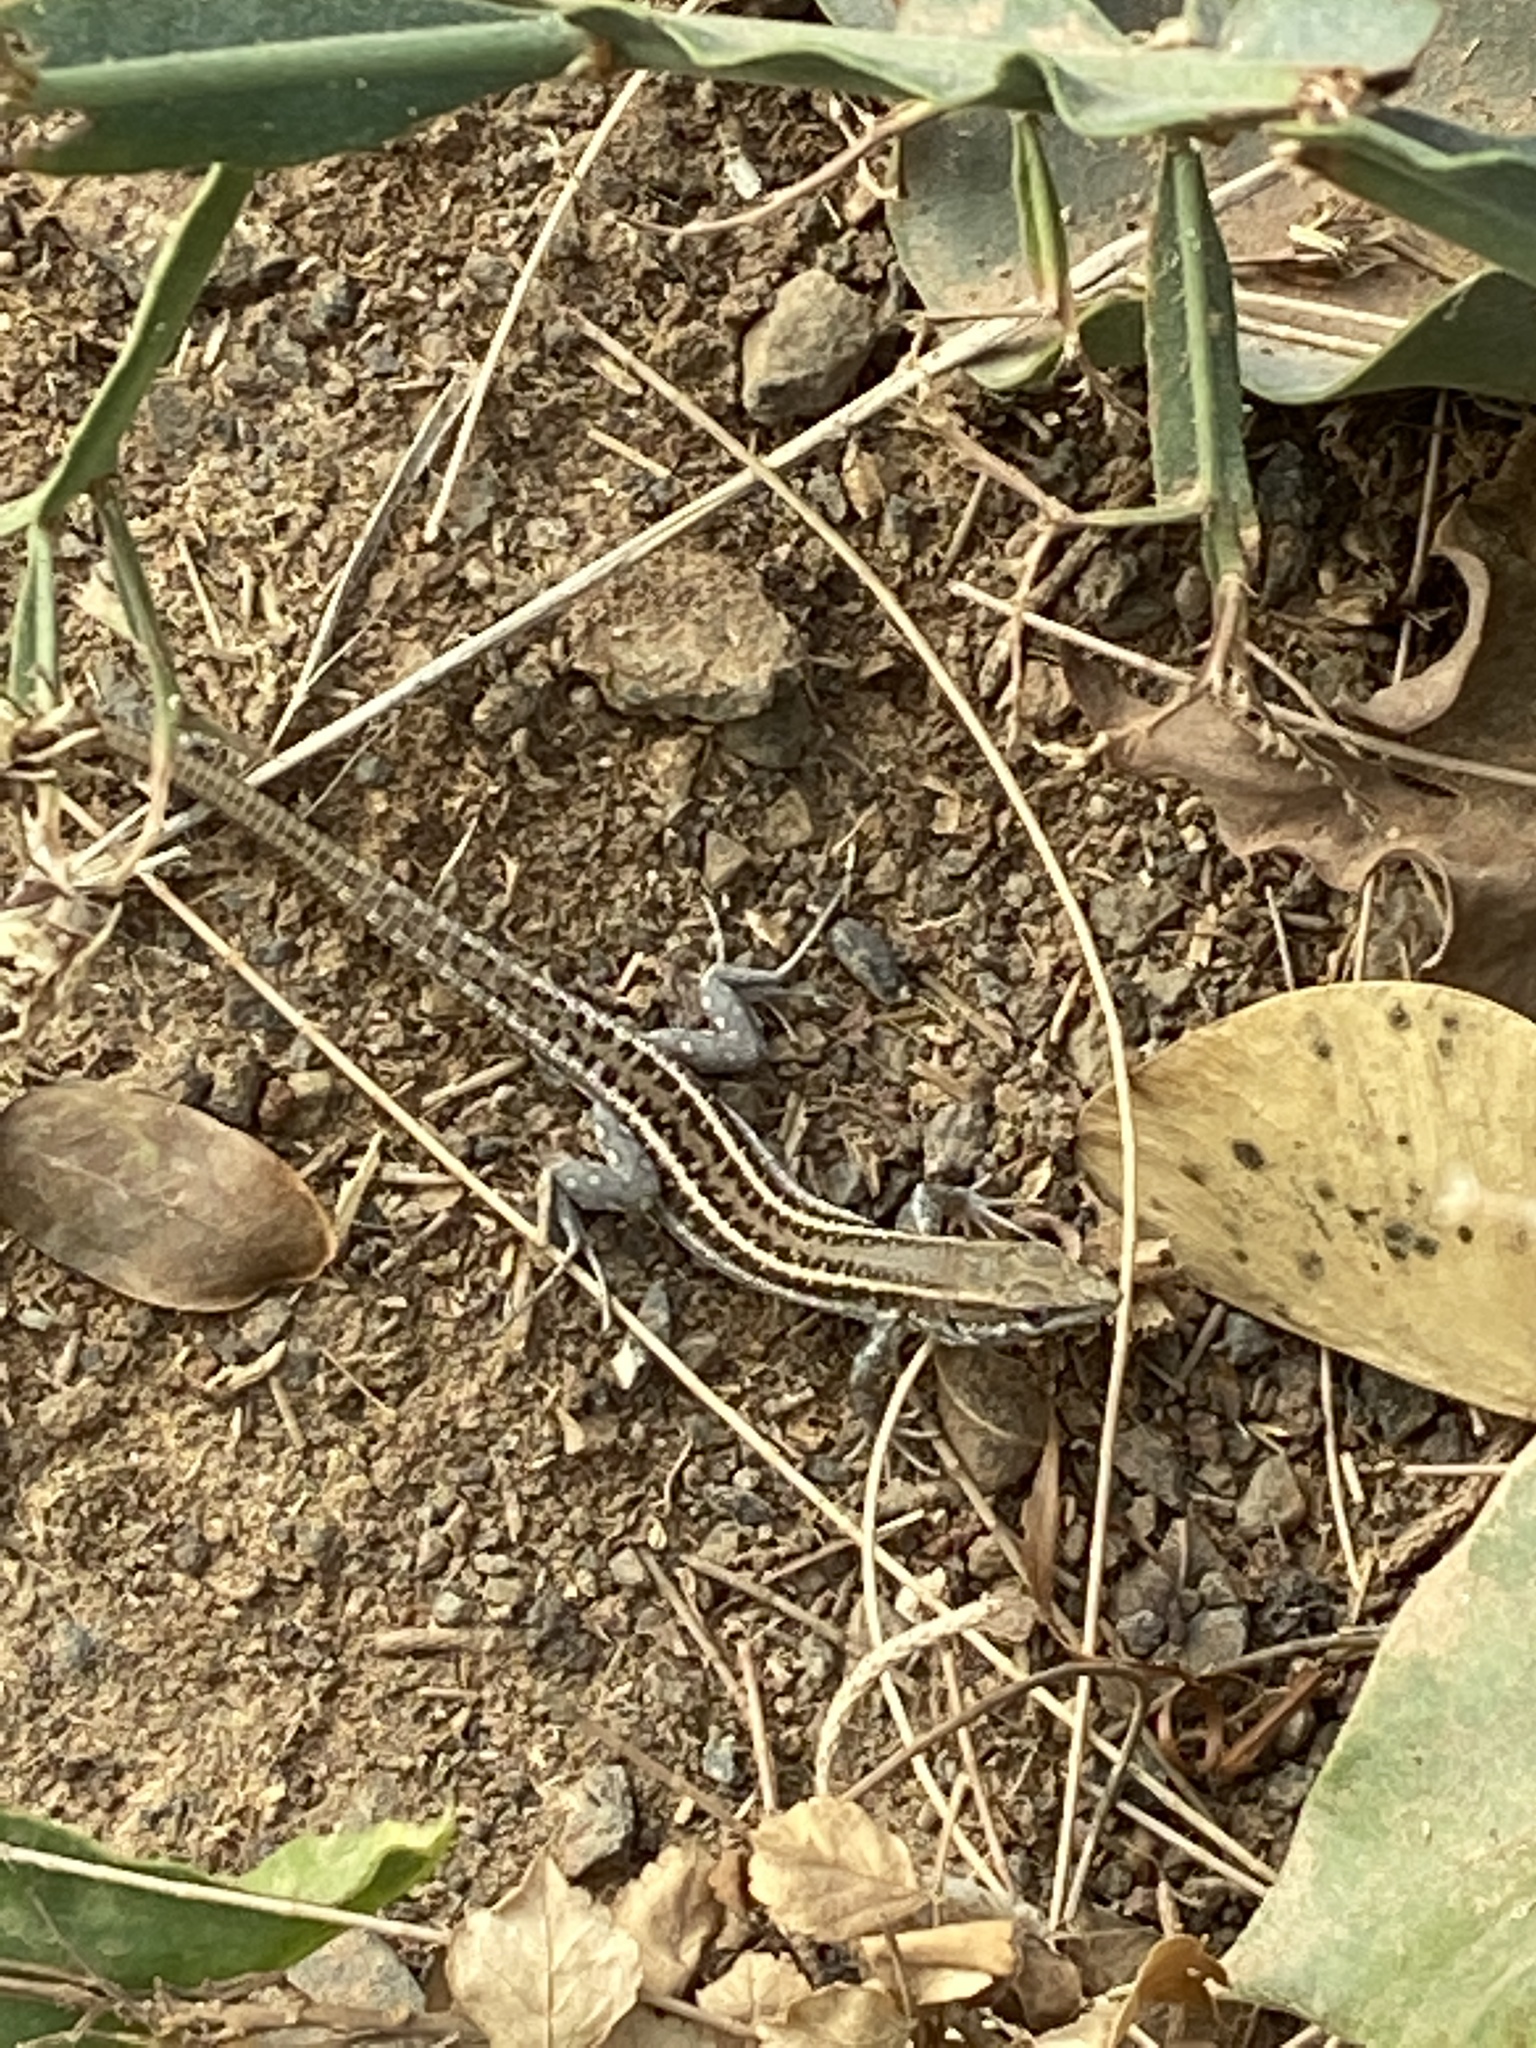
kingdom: Animalia
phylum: Chordata
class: Squamata
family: Lacertidae
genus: Gallotia
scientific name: Gallotia atlantica
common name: Atlantic lizard
